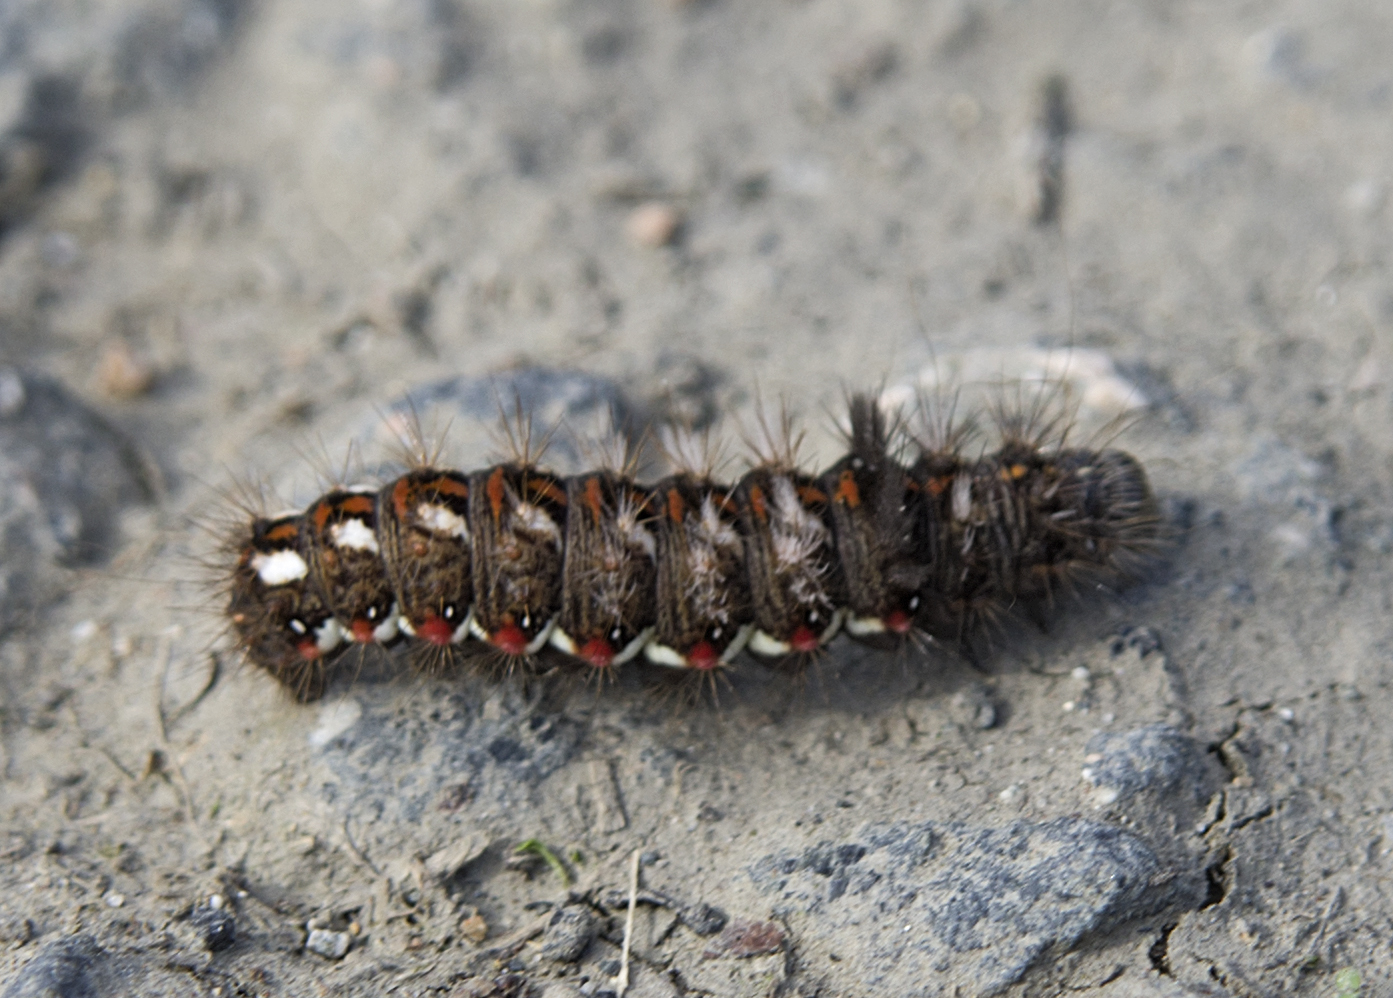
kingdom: Animalia
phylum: Arthropoda
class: Insecta
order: Lepidoptera
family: Noctuidae
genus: Acronicta
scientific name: Acronicta rumicis
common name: Knot grass
